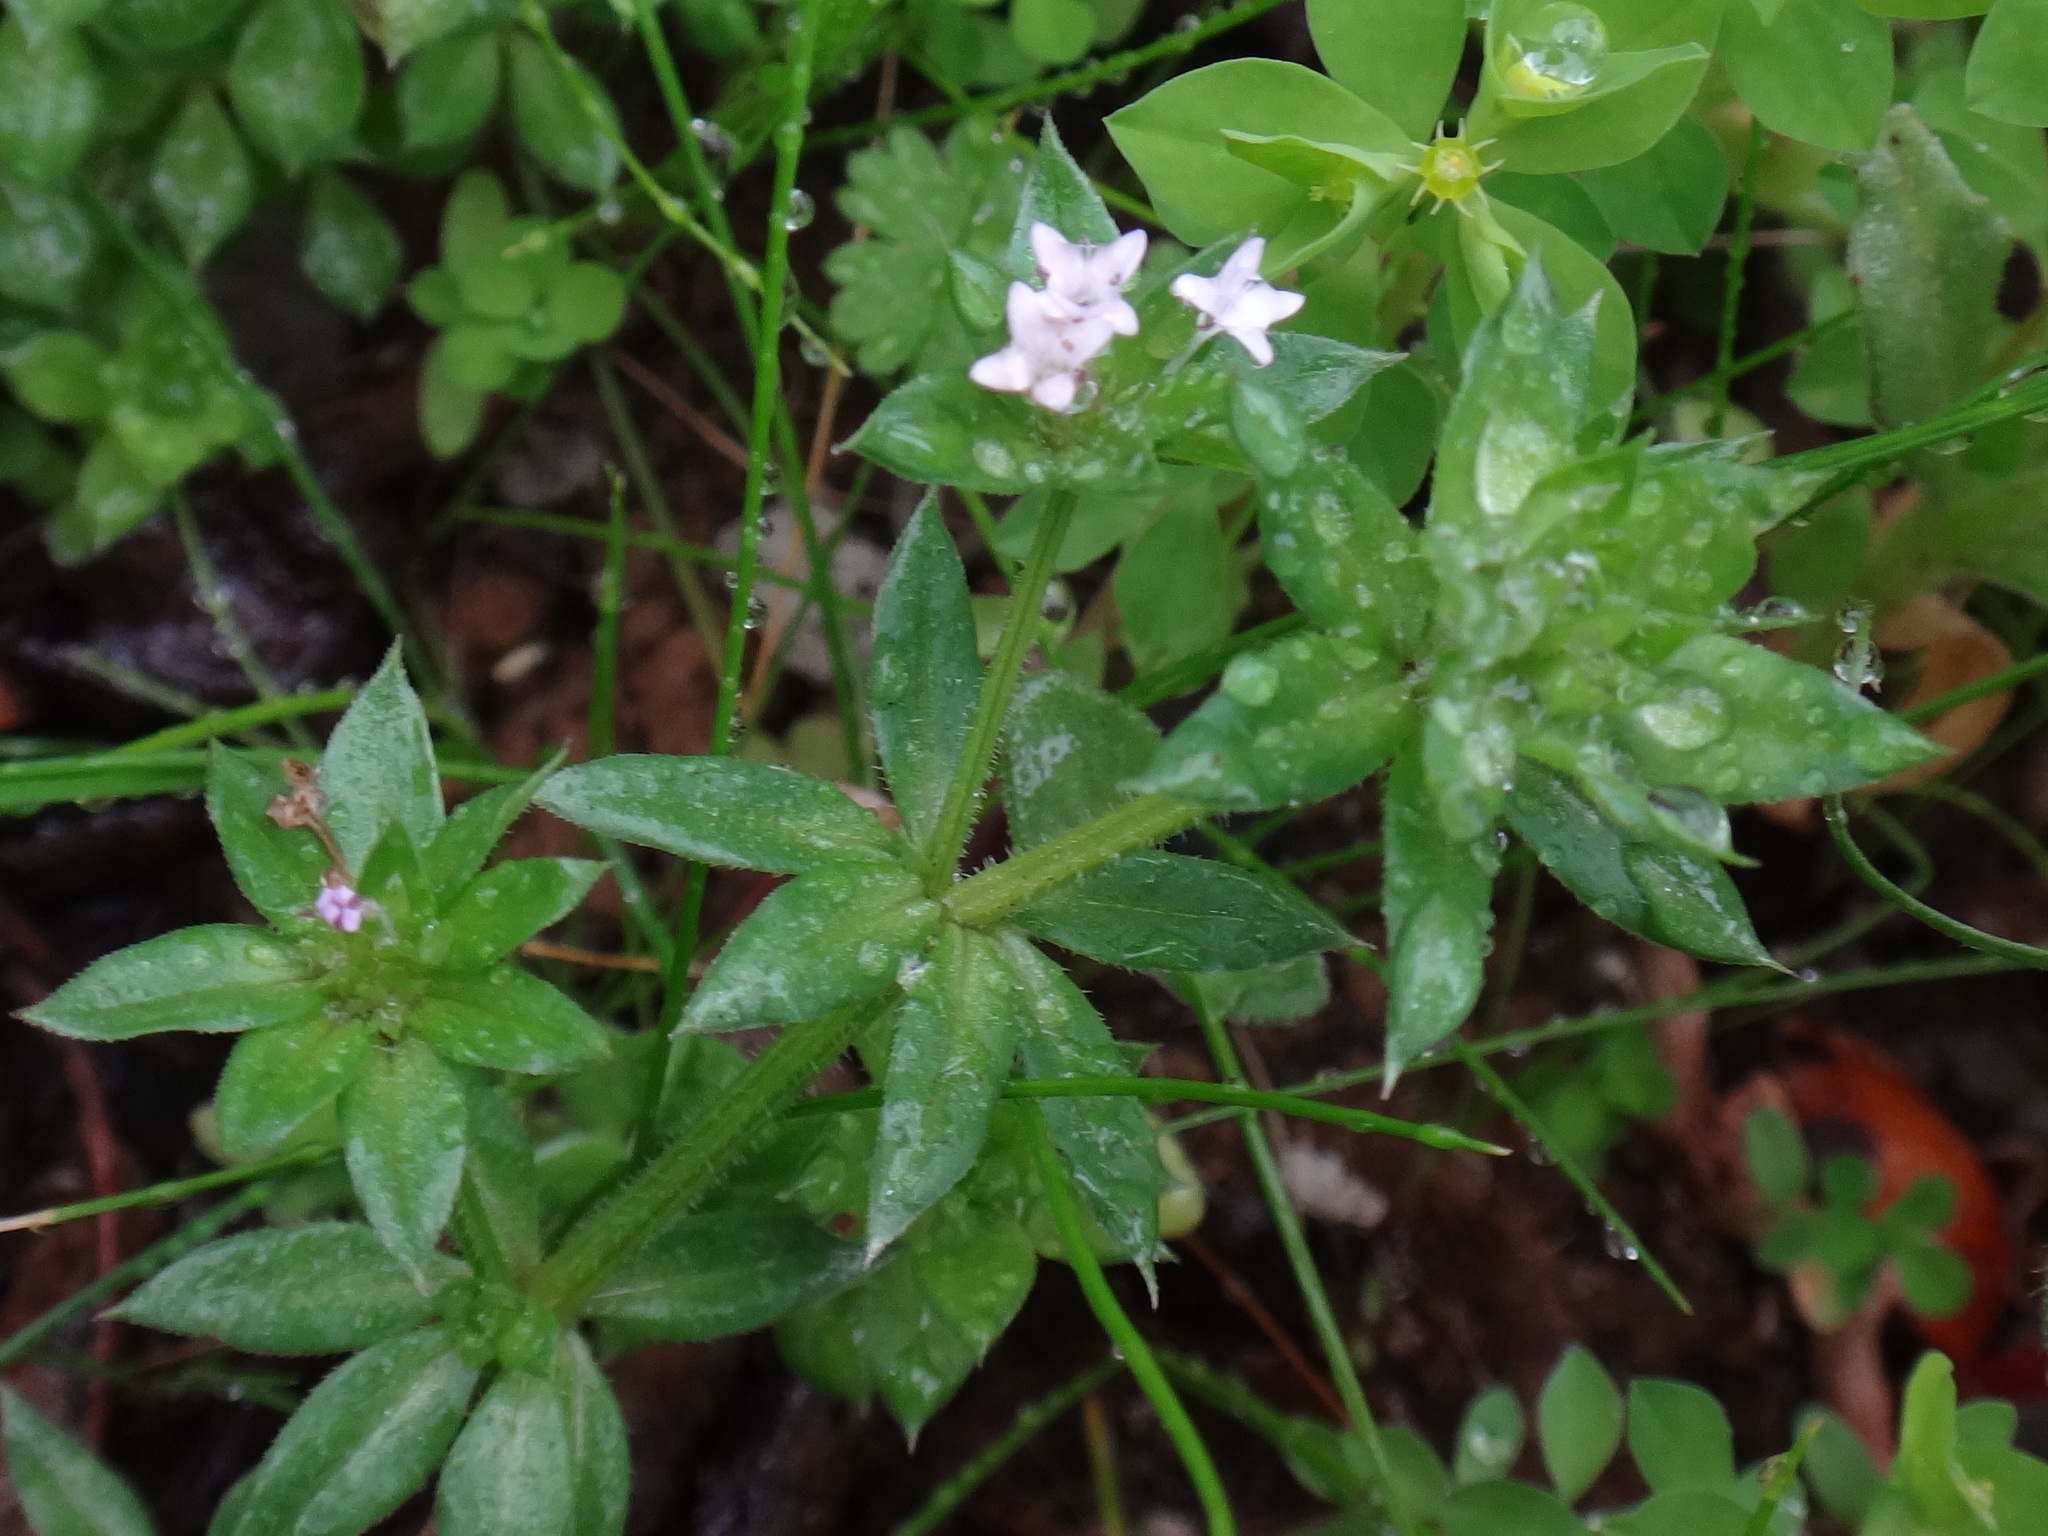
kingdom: Plantae
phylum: Tracheophyta
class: Magnoliopsida
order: Gentianales
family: Rubiaceae
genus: Sherardia
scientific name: Sherardia arvensis
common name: Field madder
